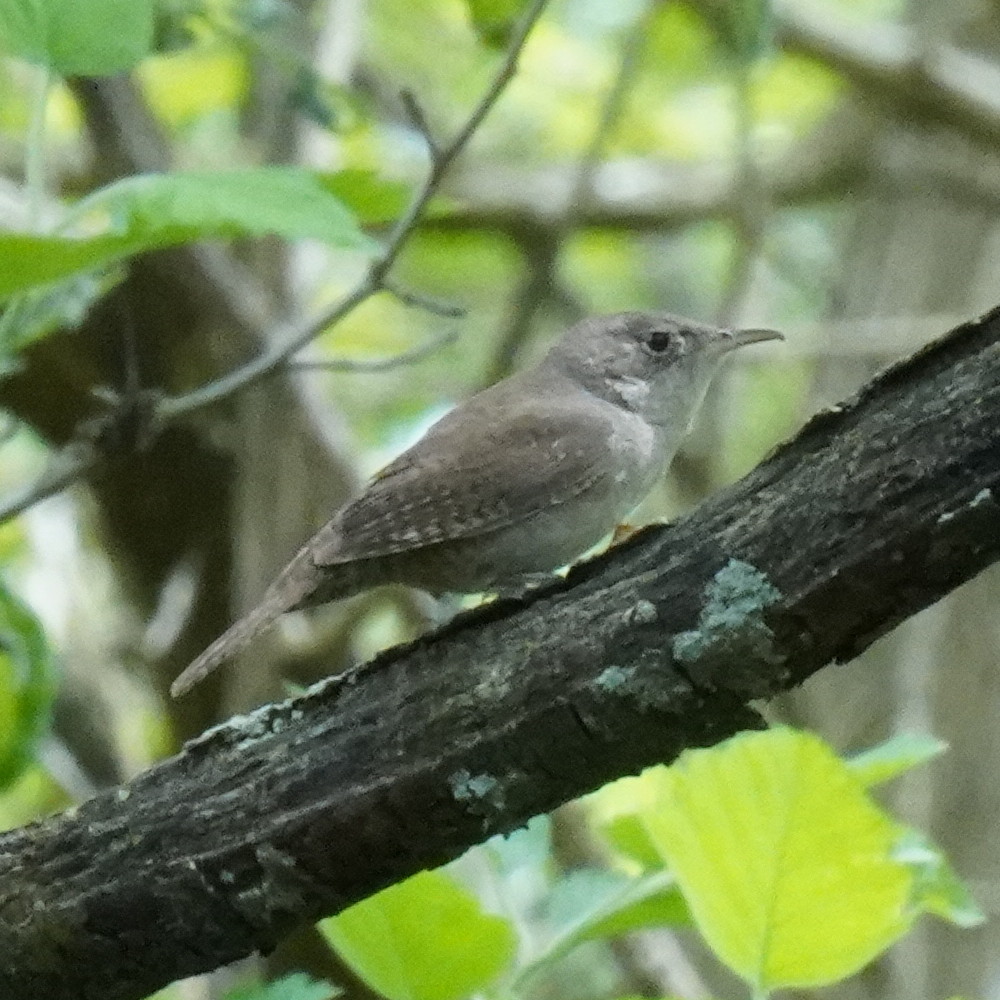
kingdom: Animalia
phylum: Chordata
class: Aves
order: Passeriformes
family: Troglodytidae
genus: Troglodytes
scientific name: Troglodytes aedon
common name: House wren
